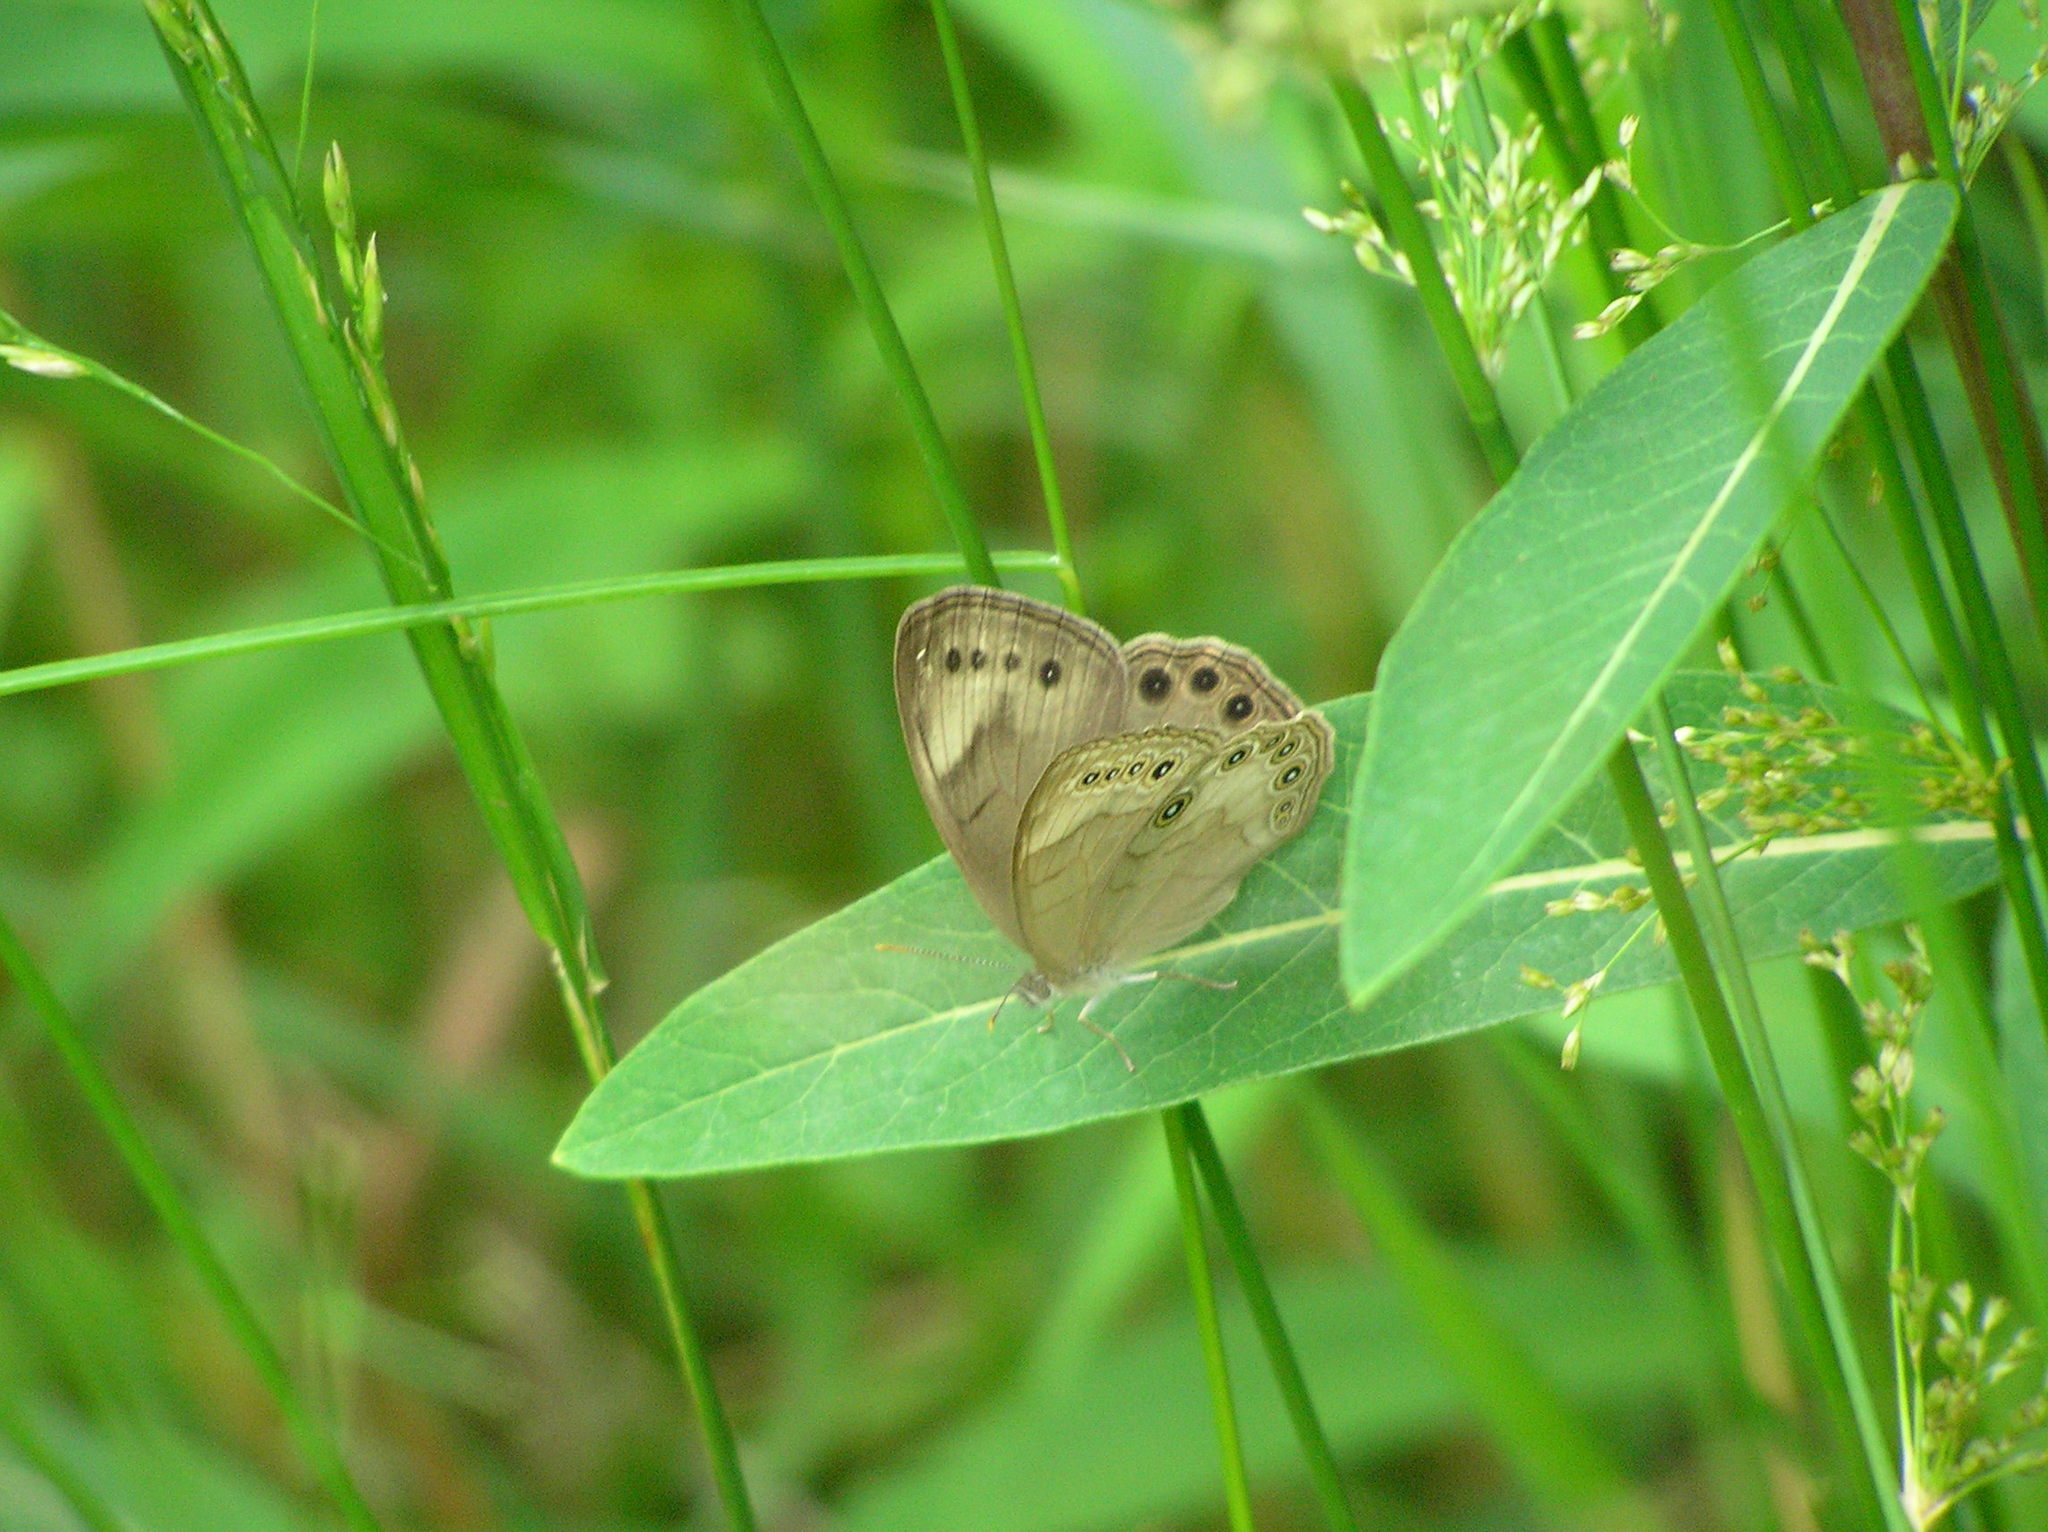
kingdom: Animalia
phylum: Arthropoda
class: Insecta
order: Lepidoptera
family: Nymphalidae
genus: Lethe
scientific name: Lethe eurydice
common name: Eyed brown
